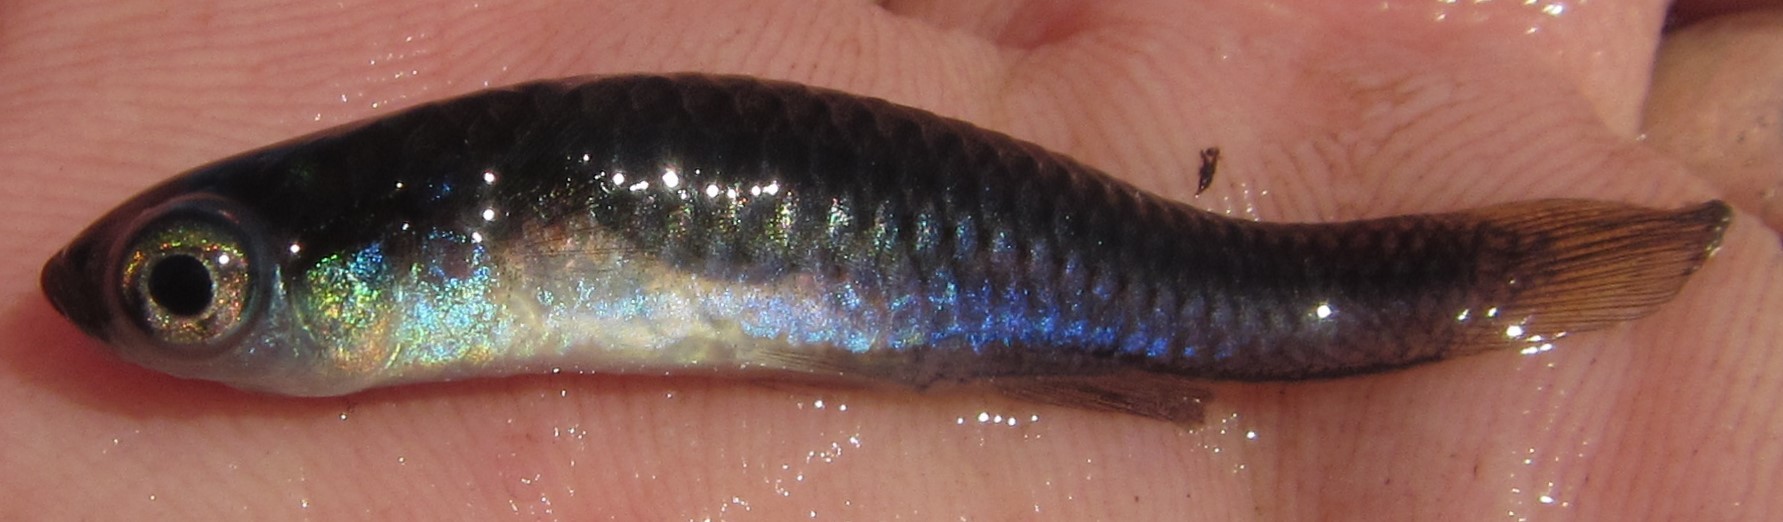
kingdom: Animalia
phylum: Chordata
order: Cyprinodontiformes
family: Poeciliidae
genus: Micropanchax
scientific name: Micropanchax johnstoni
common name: Johnston's topminnow
